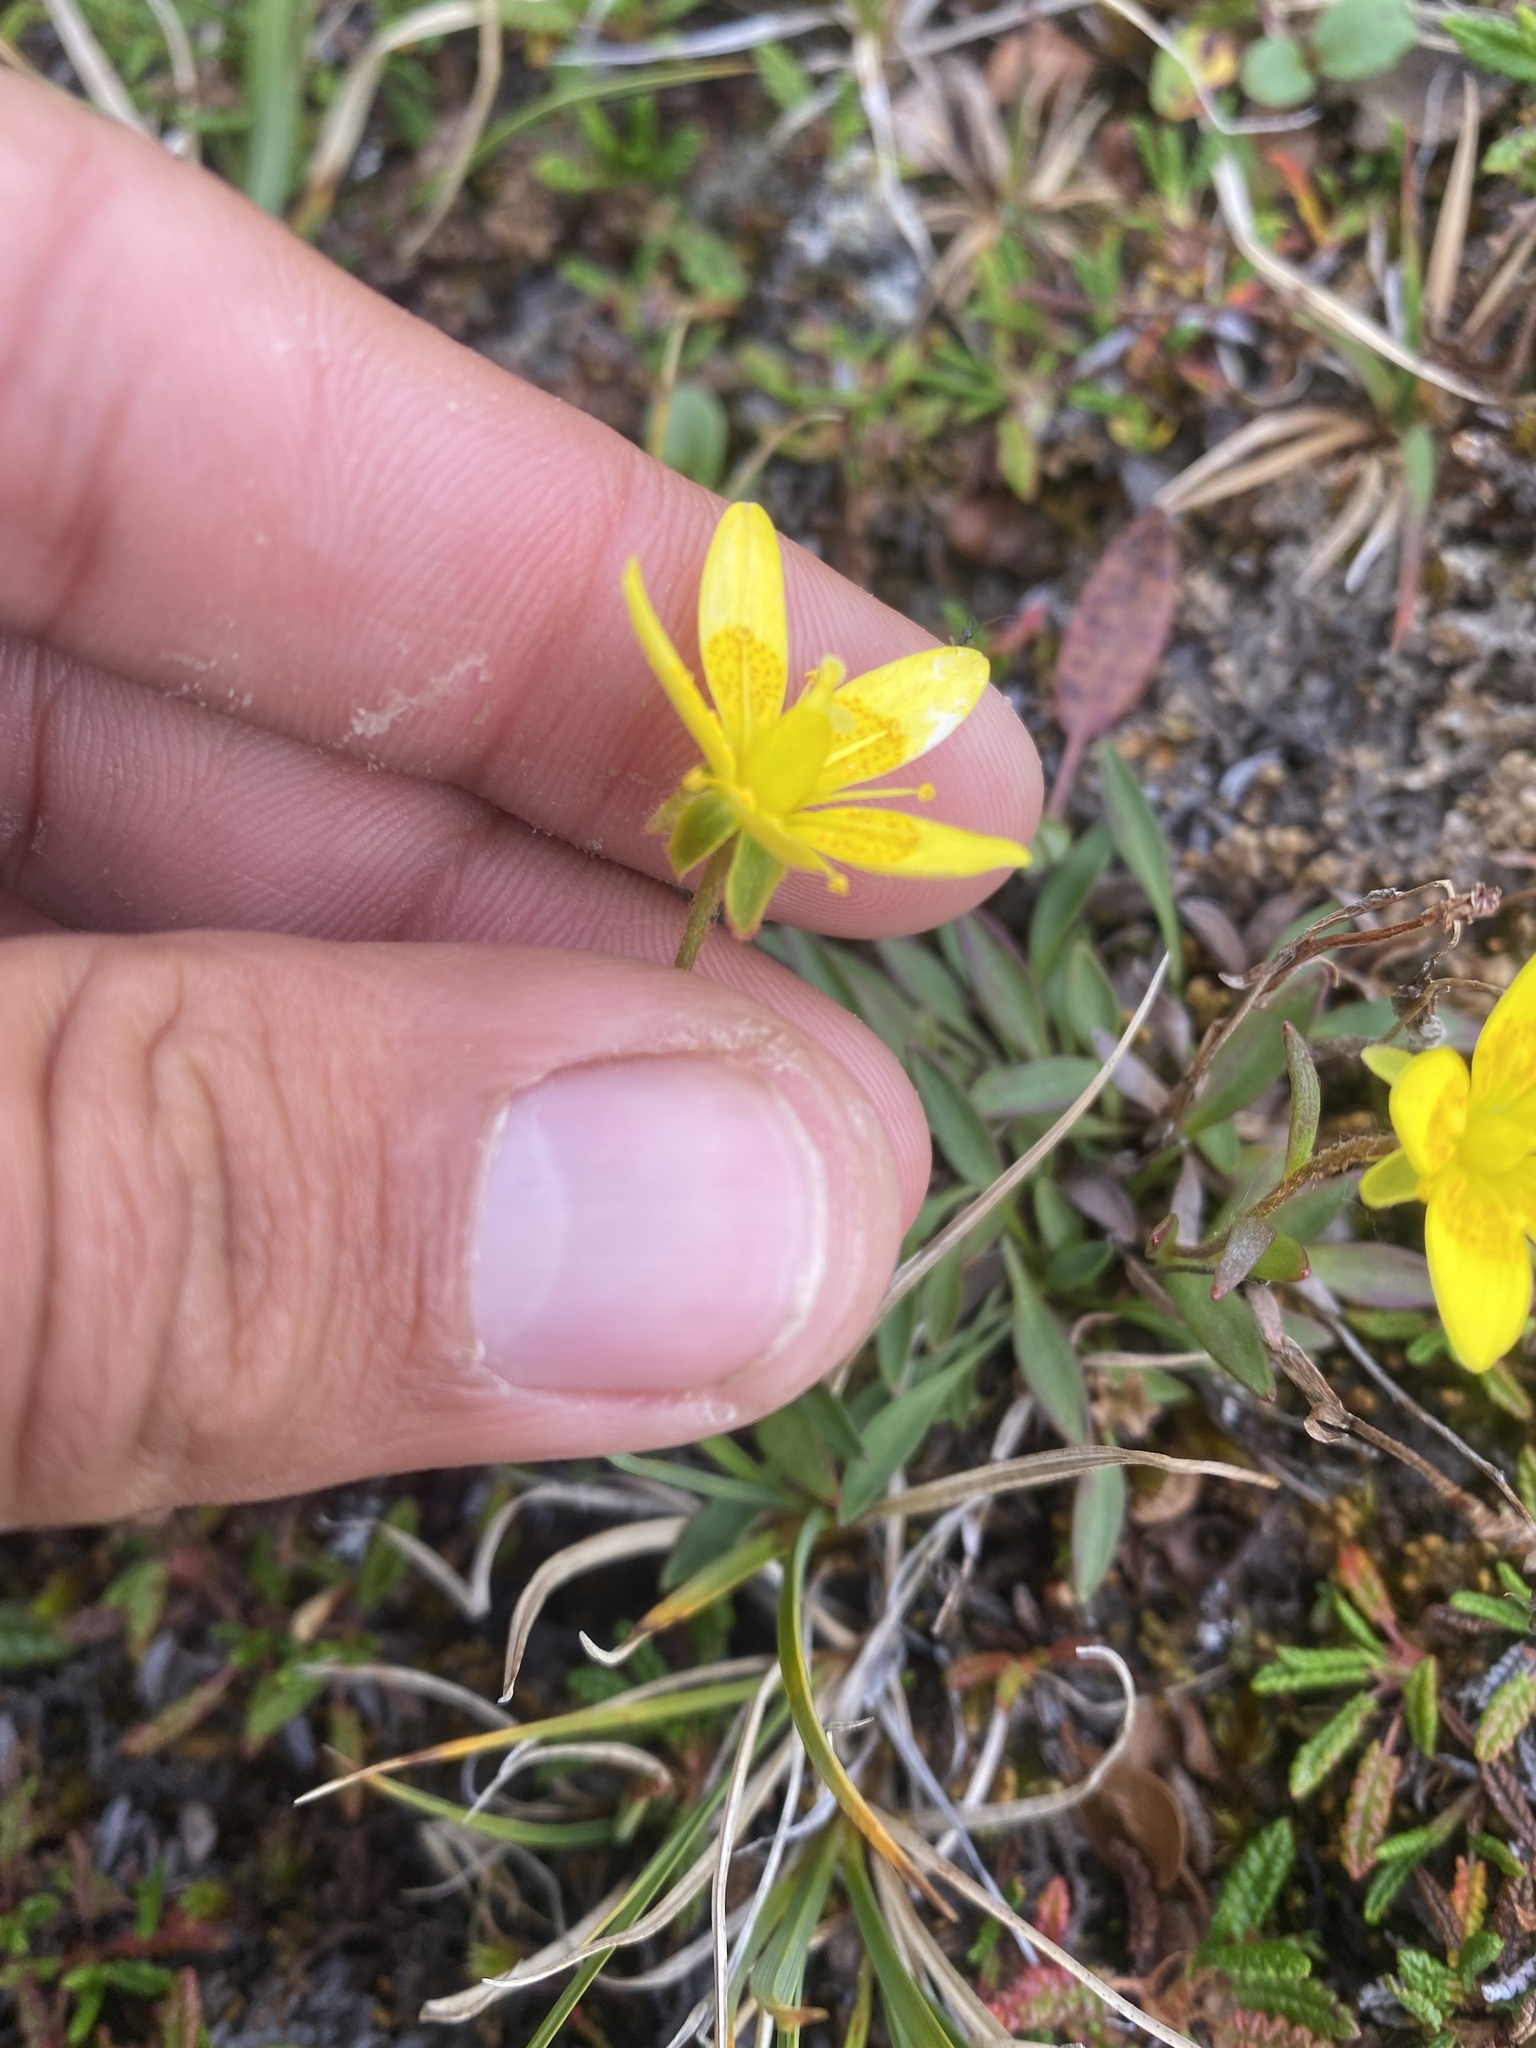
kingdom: Plantae
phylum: Tracheophyta
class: Magnoliopsida
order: Saxifragales
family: Saxifragaceae
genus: Saxifraga
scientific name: Saxifraga hirculus
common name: Yellow marsh saxifrage
